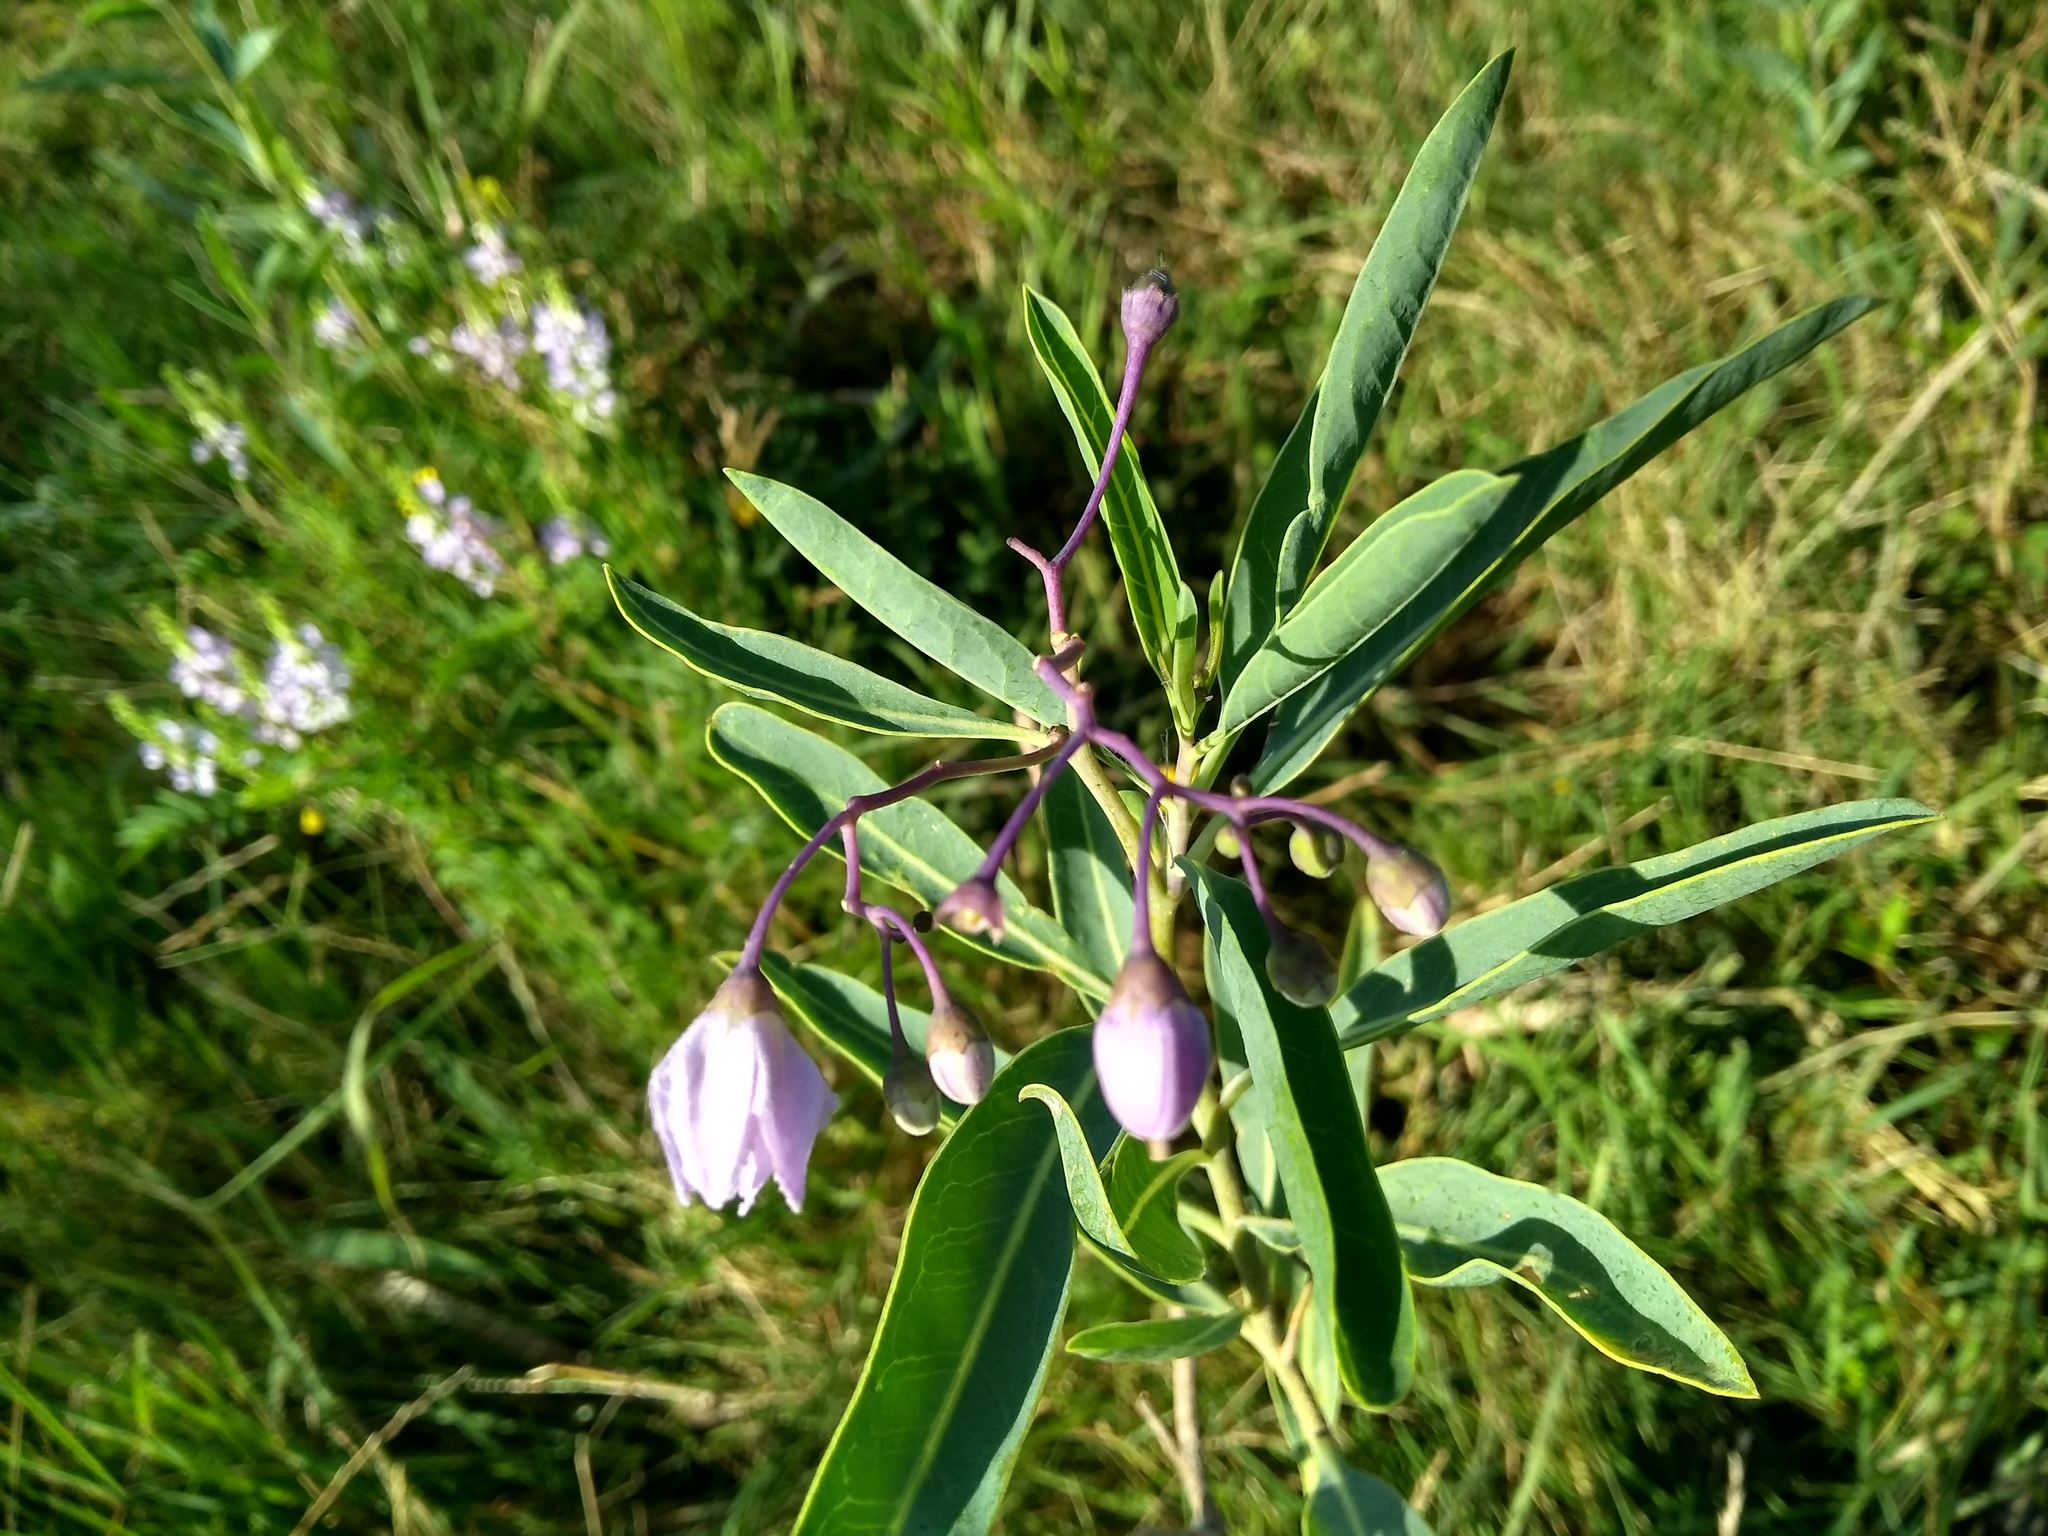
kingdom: Plantae
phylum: Tracheophyta
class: Magnoliopsida
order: Solanales
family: Solanaceae
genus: Solanum
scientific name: Solanum glaucophyllum
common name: Waxyleaf nightshade
